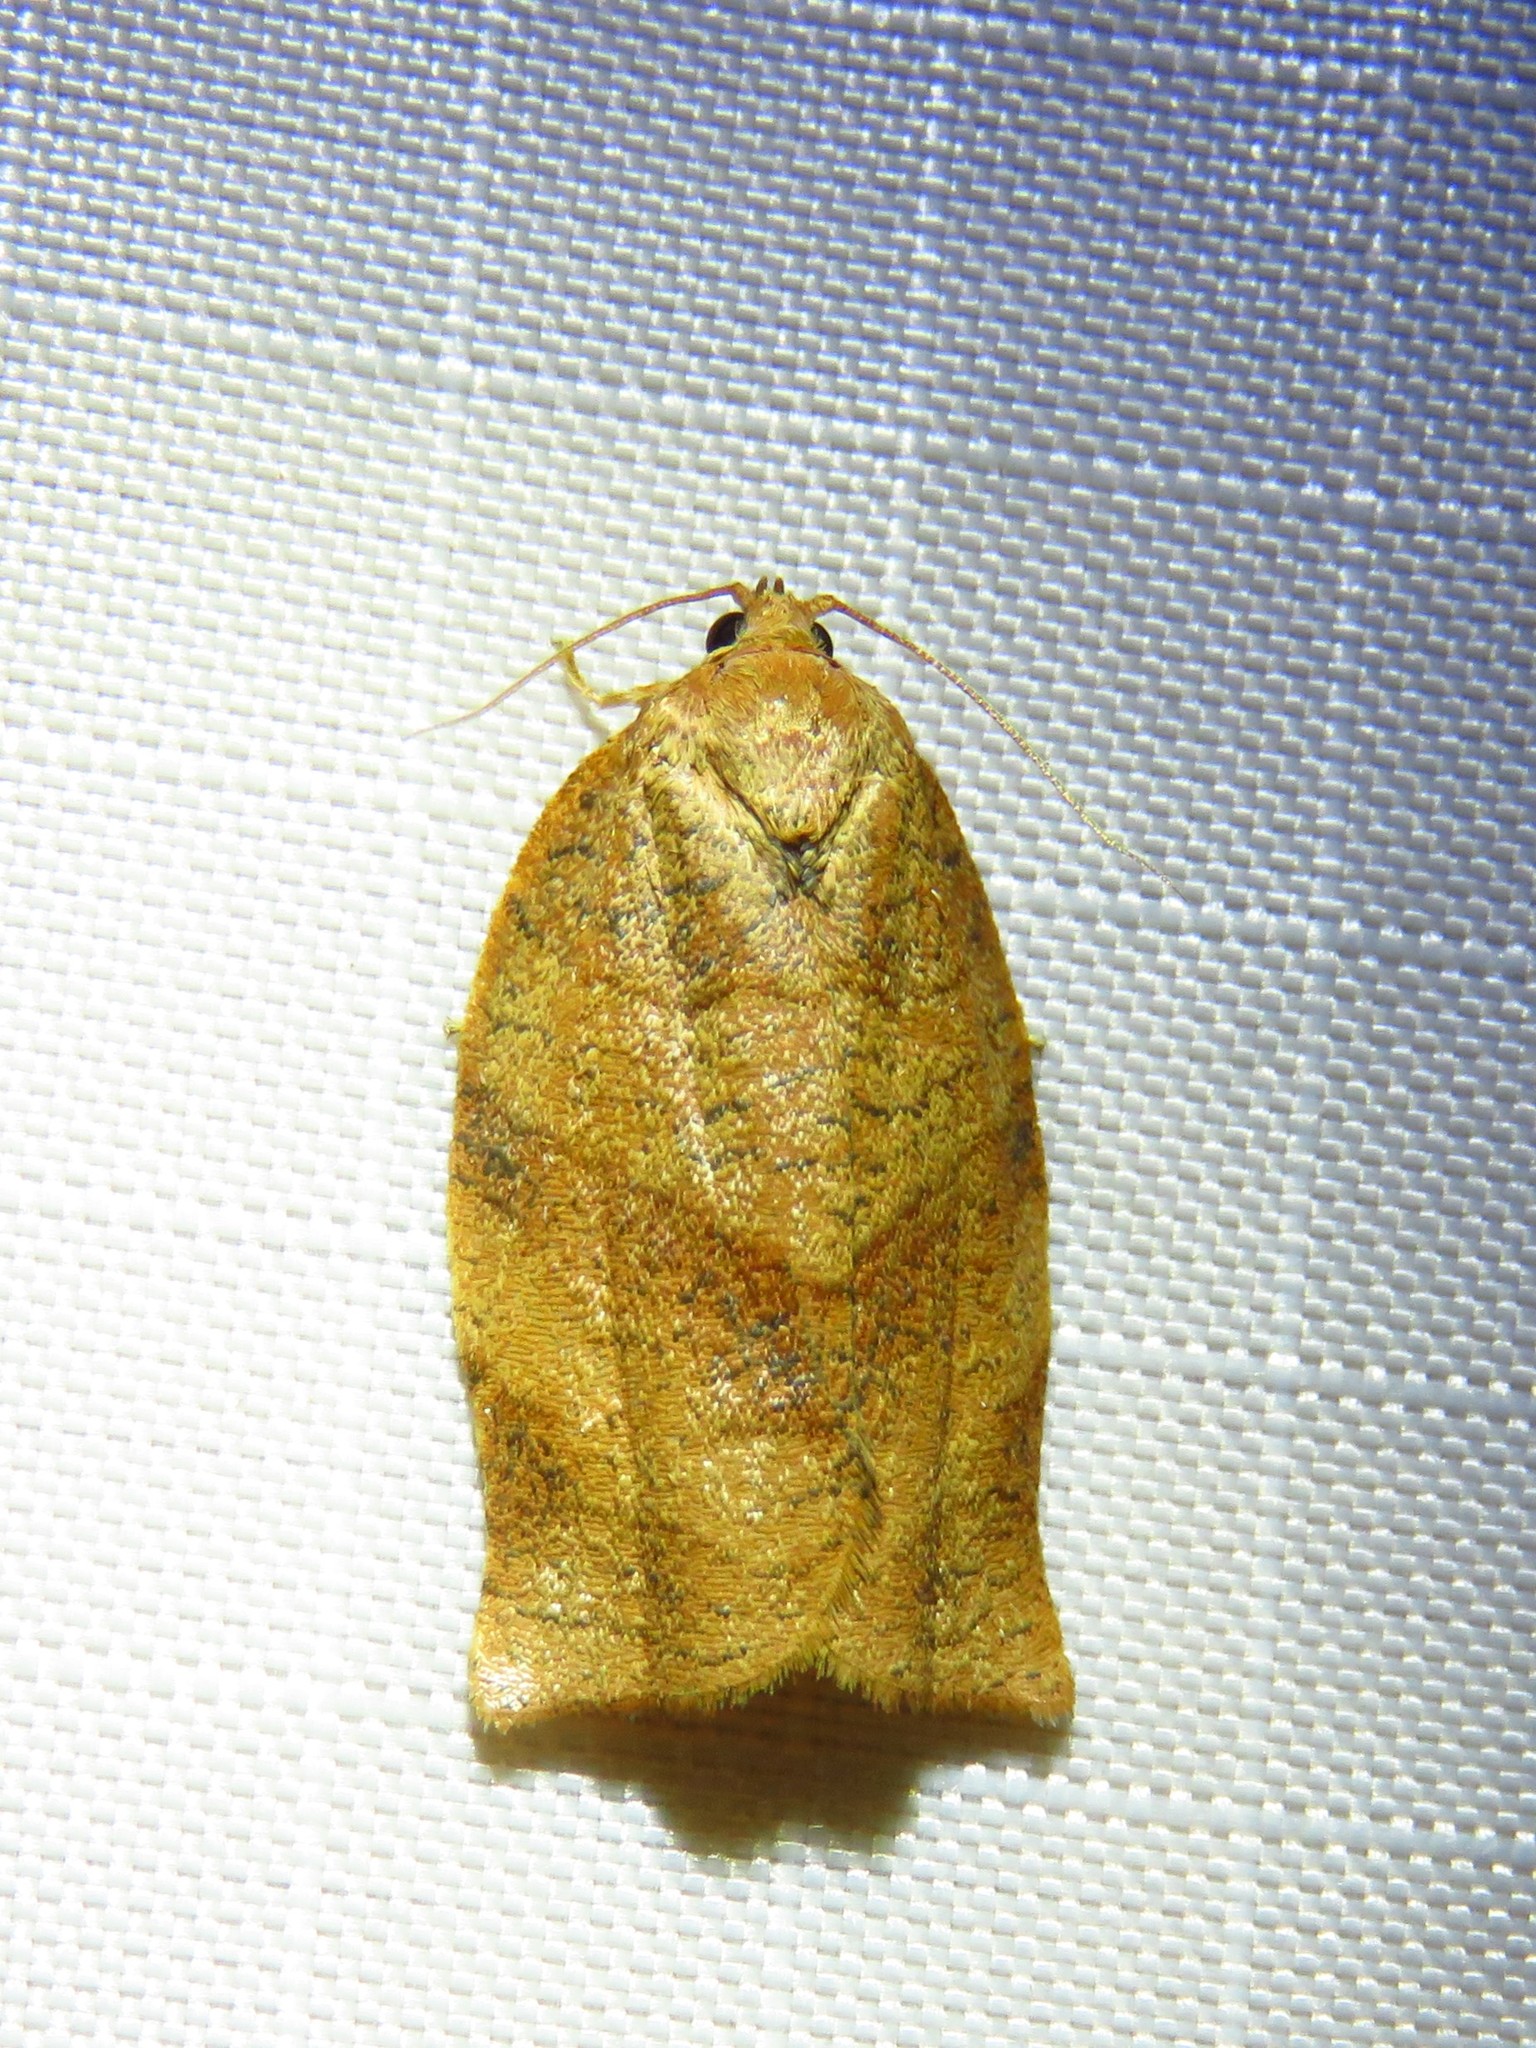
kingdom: Animalia
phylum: Arthropoda
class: Insecta
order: Lepidoptera
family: Tortricidae
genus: Choristoneura
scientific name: Choristoneura rosaceana
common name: Oblique-banded leafroller moth
